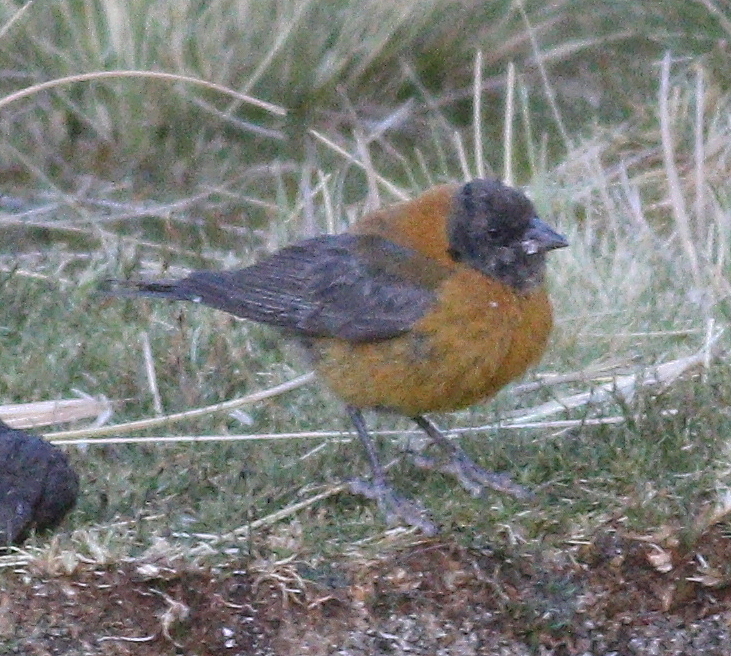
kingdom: Animalia
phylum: Chordata
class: Aves
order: Passeriformes
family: Thraupidae
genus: Phrygilus
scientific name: Phrygilus atriceps
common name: Black-hooded sierra finch
